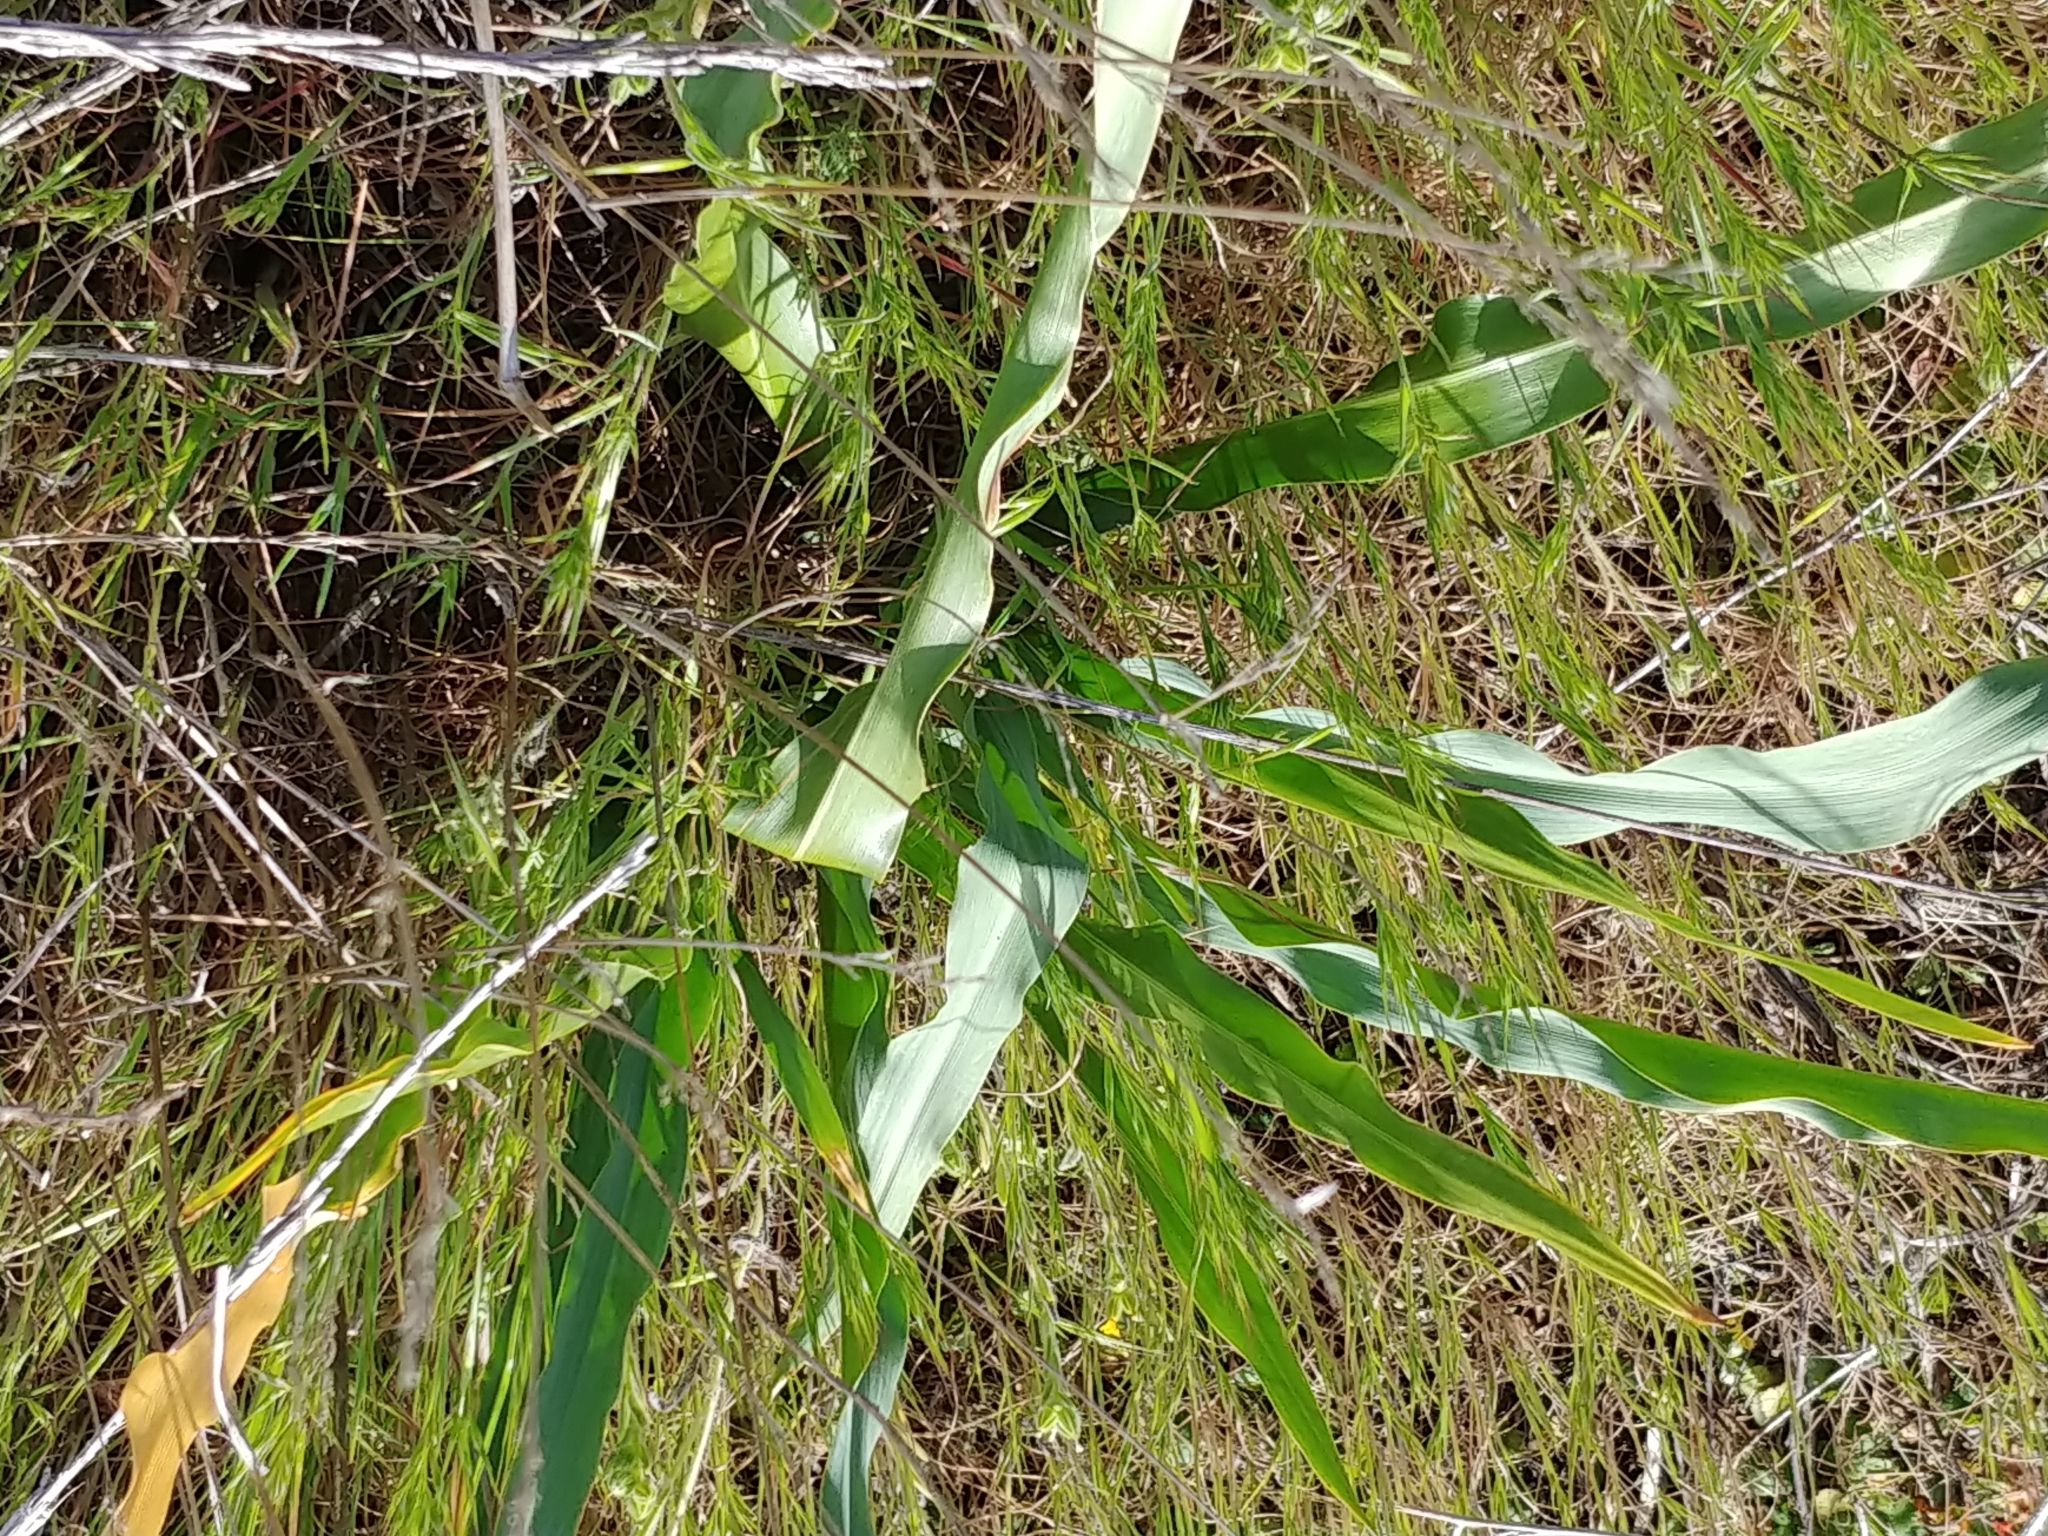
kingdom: Plantae
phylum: Tracheophyta
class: Liliopsida
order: Asparagales
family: Asparagaceae
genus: Chlorogalum
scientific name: Chlorogalum pomeridianum
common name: Amole
